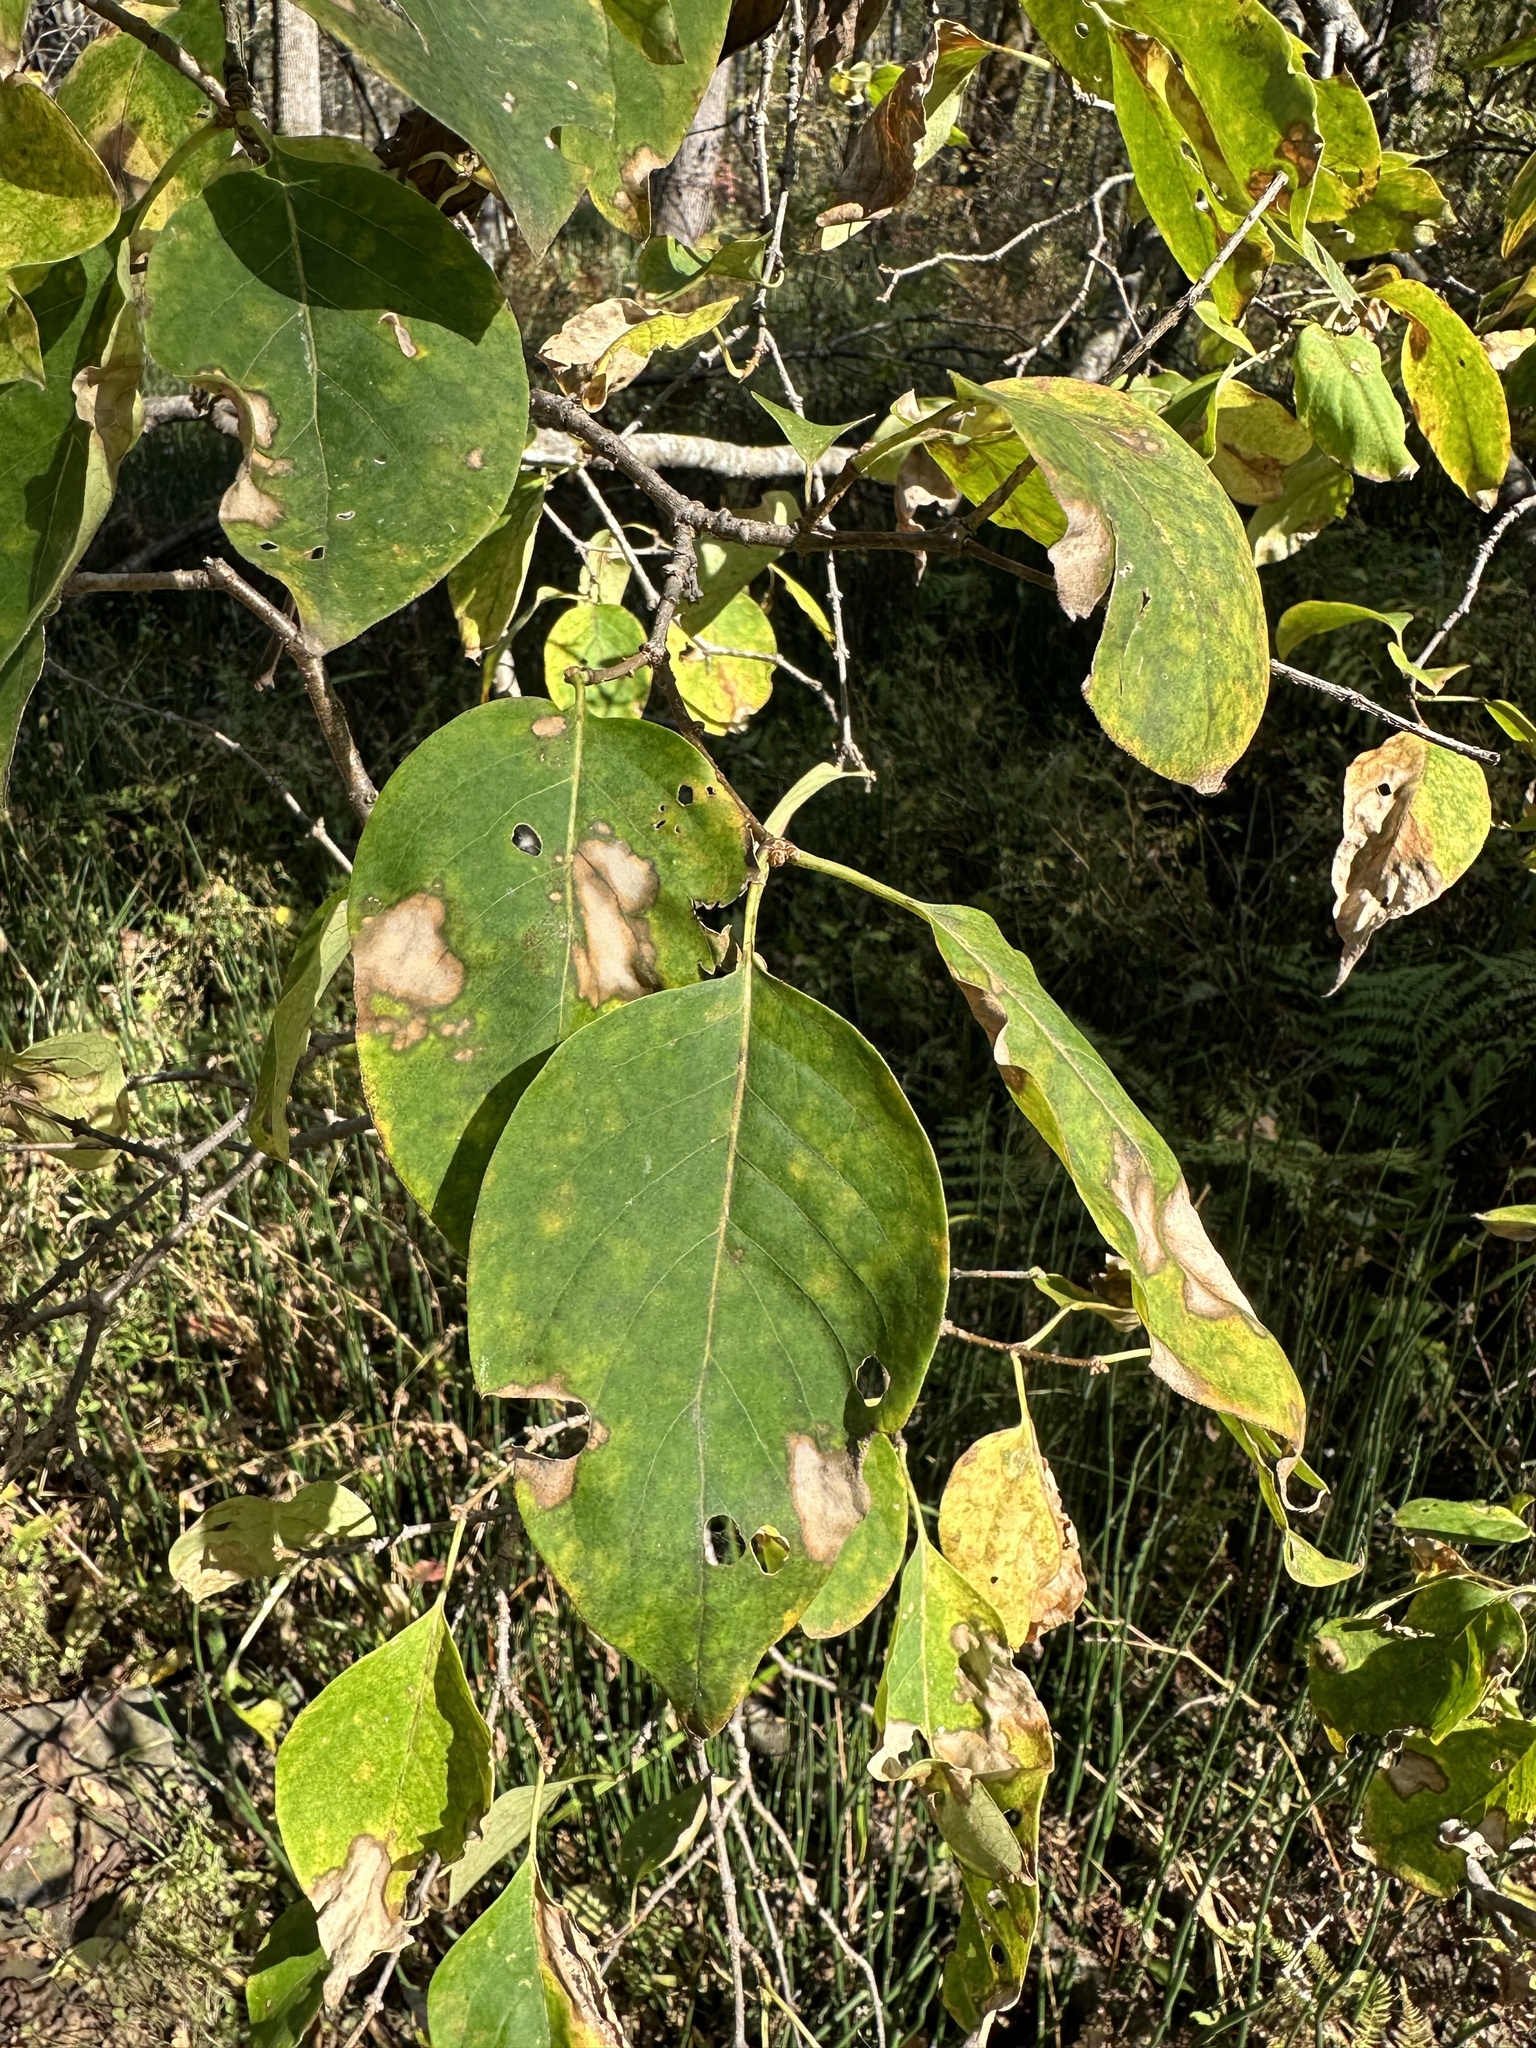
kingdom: Plantae
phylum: Tracheophyta
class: Magnoliopsida
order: Lamiales
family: Oleaceae
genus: Syringa
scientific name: Syringa reticulata
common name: Japanese tree lilac
